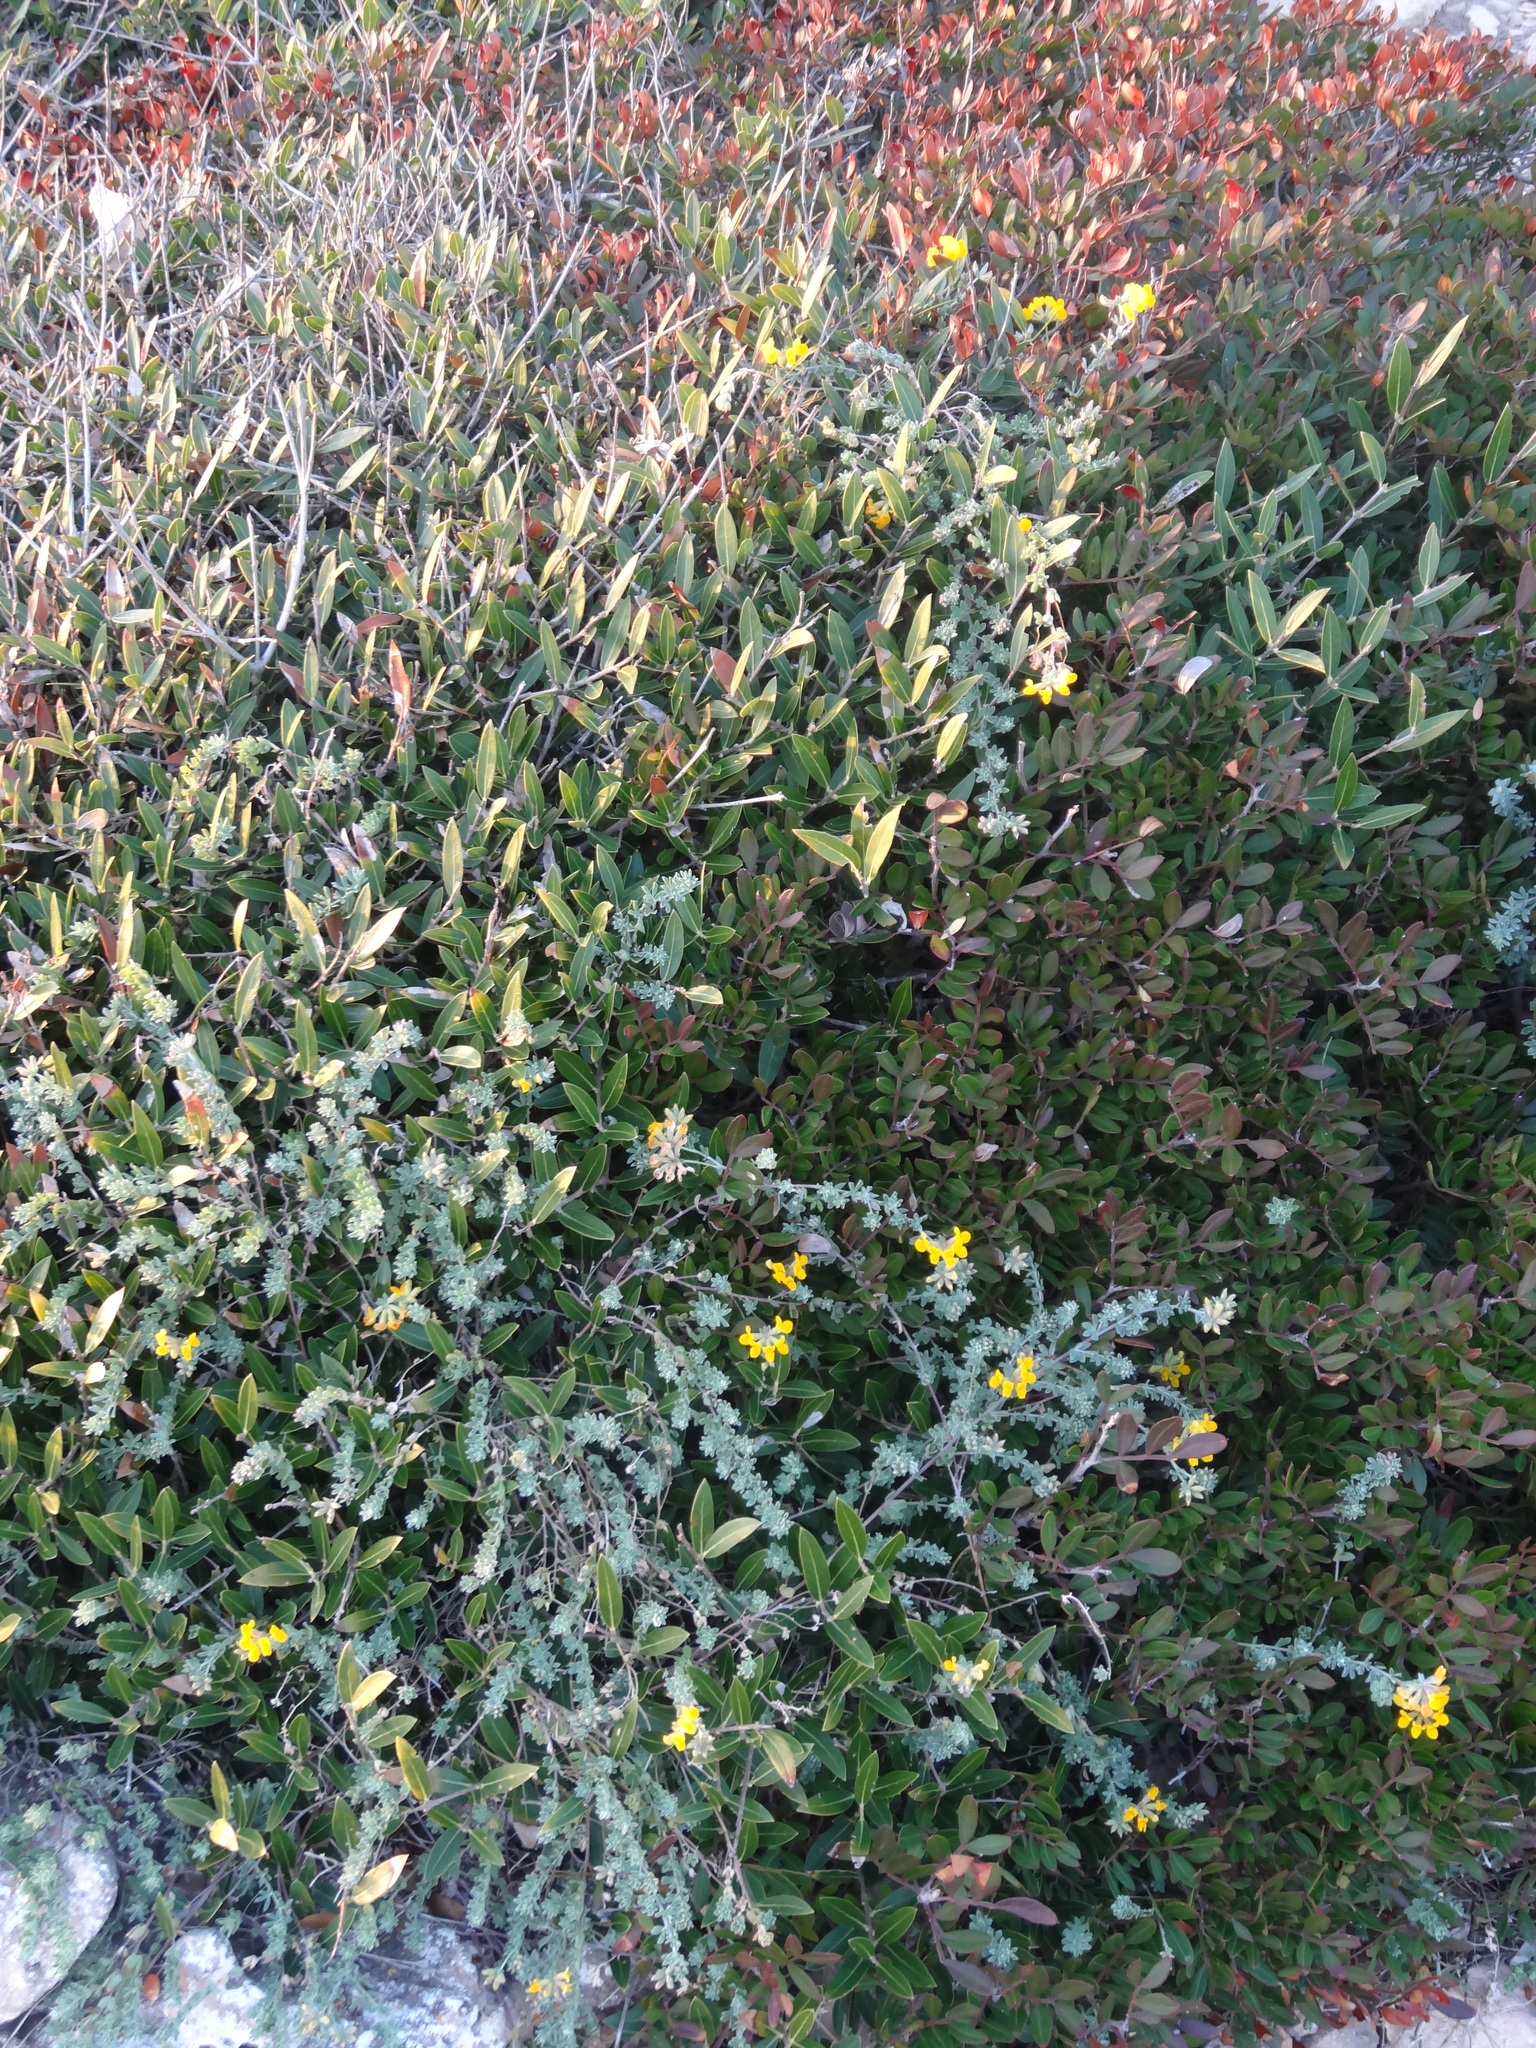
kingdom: Plantae
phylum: Tracheophyta
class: Magnoliopsida
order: Fabales
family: Fabaceae
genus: Medicago
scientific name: Medicago marina
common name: Sea medick
